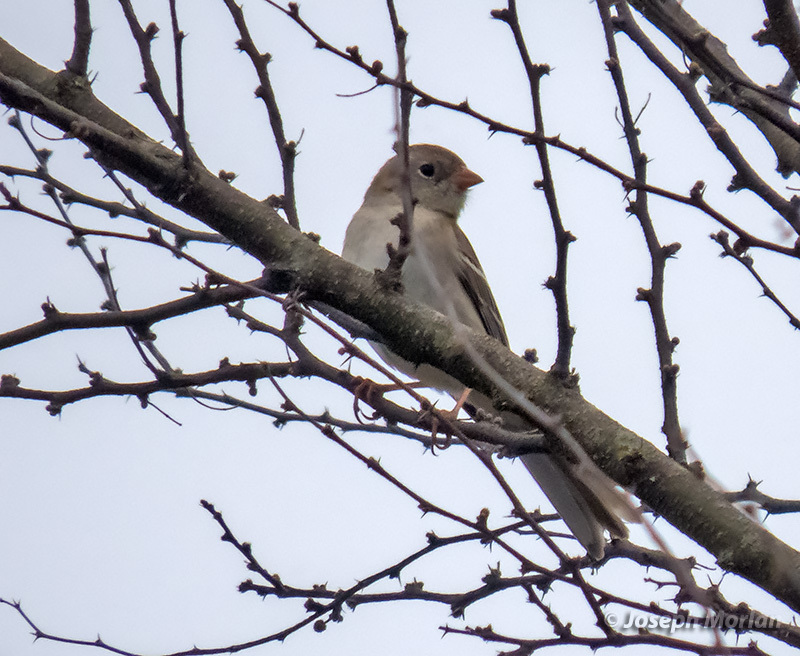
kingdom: Animalia
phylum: Chordata
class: Aves
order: Passeriformes
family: Passerellidae
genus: Spizella
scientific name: Spizella pusilla
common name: Field sparrow
